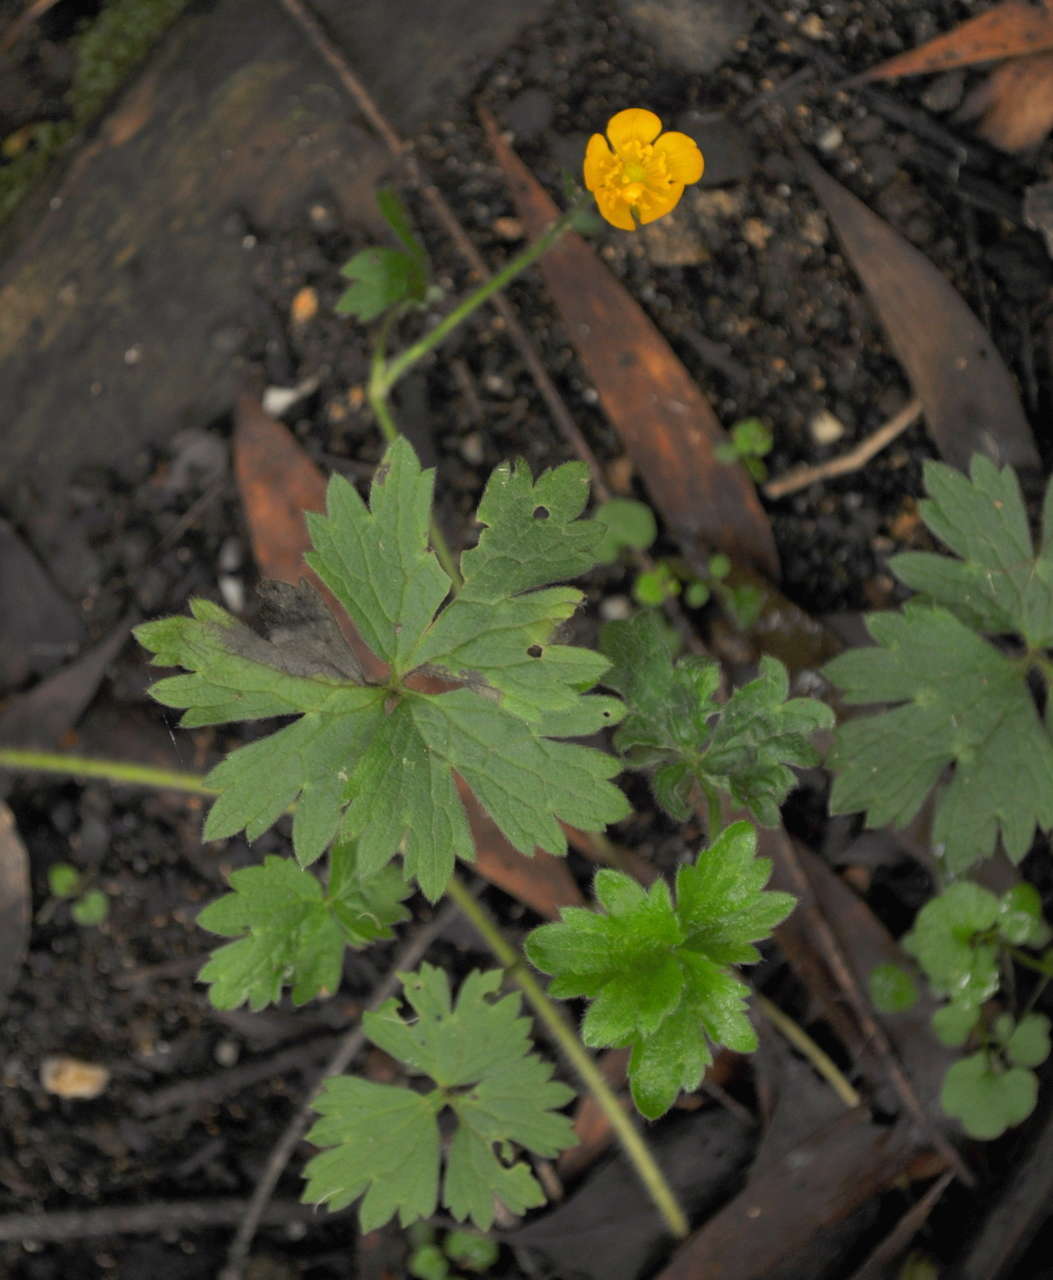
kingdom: Plantae
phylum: Tracheophyta
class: Magnoliopsida
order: Ranunculales
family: Ranunculaceae
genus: Ranunculus
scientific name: Ranunculus repens
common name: Creeping buttercup
